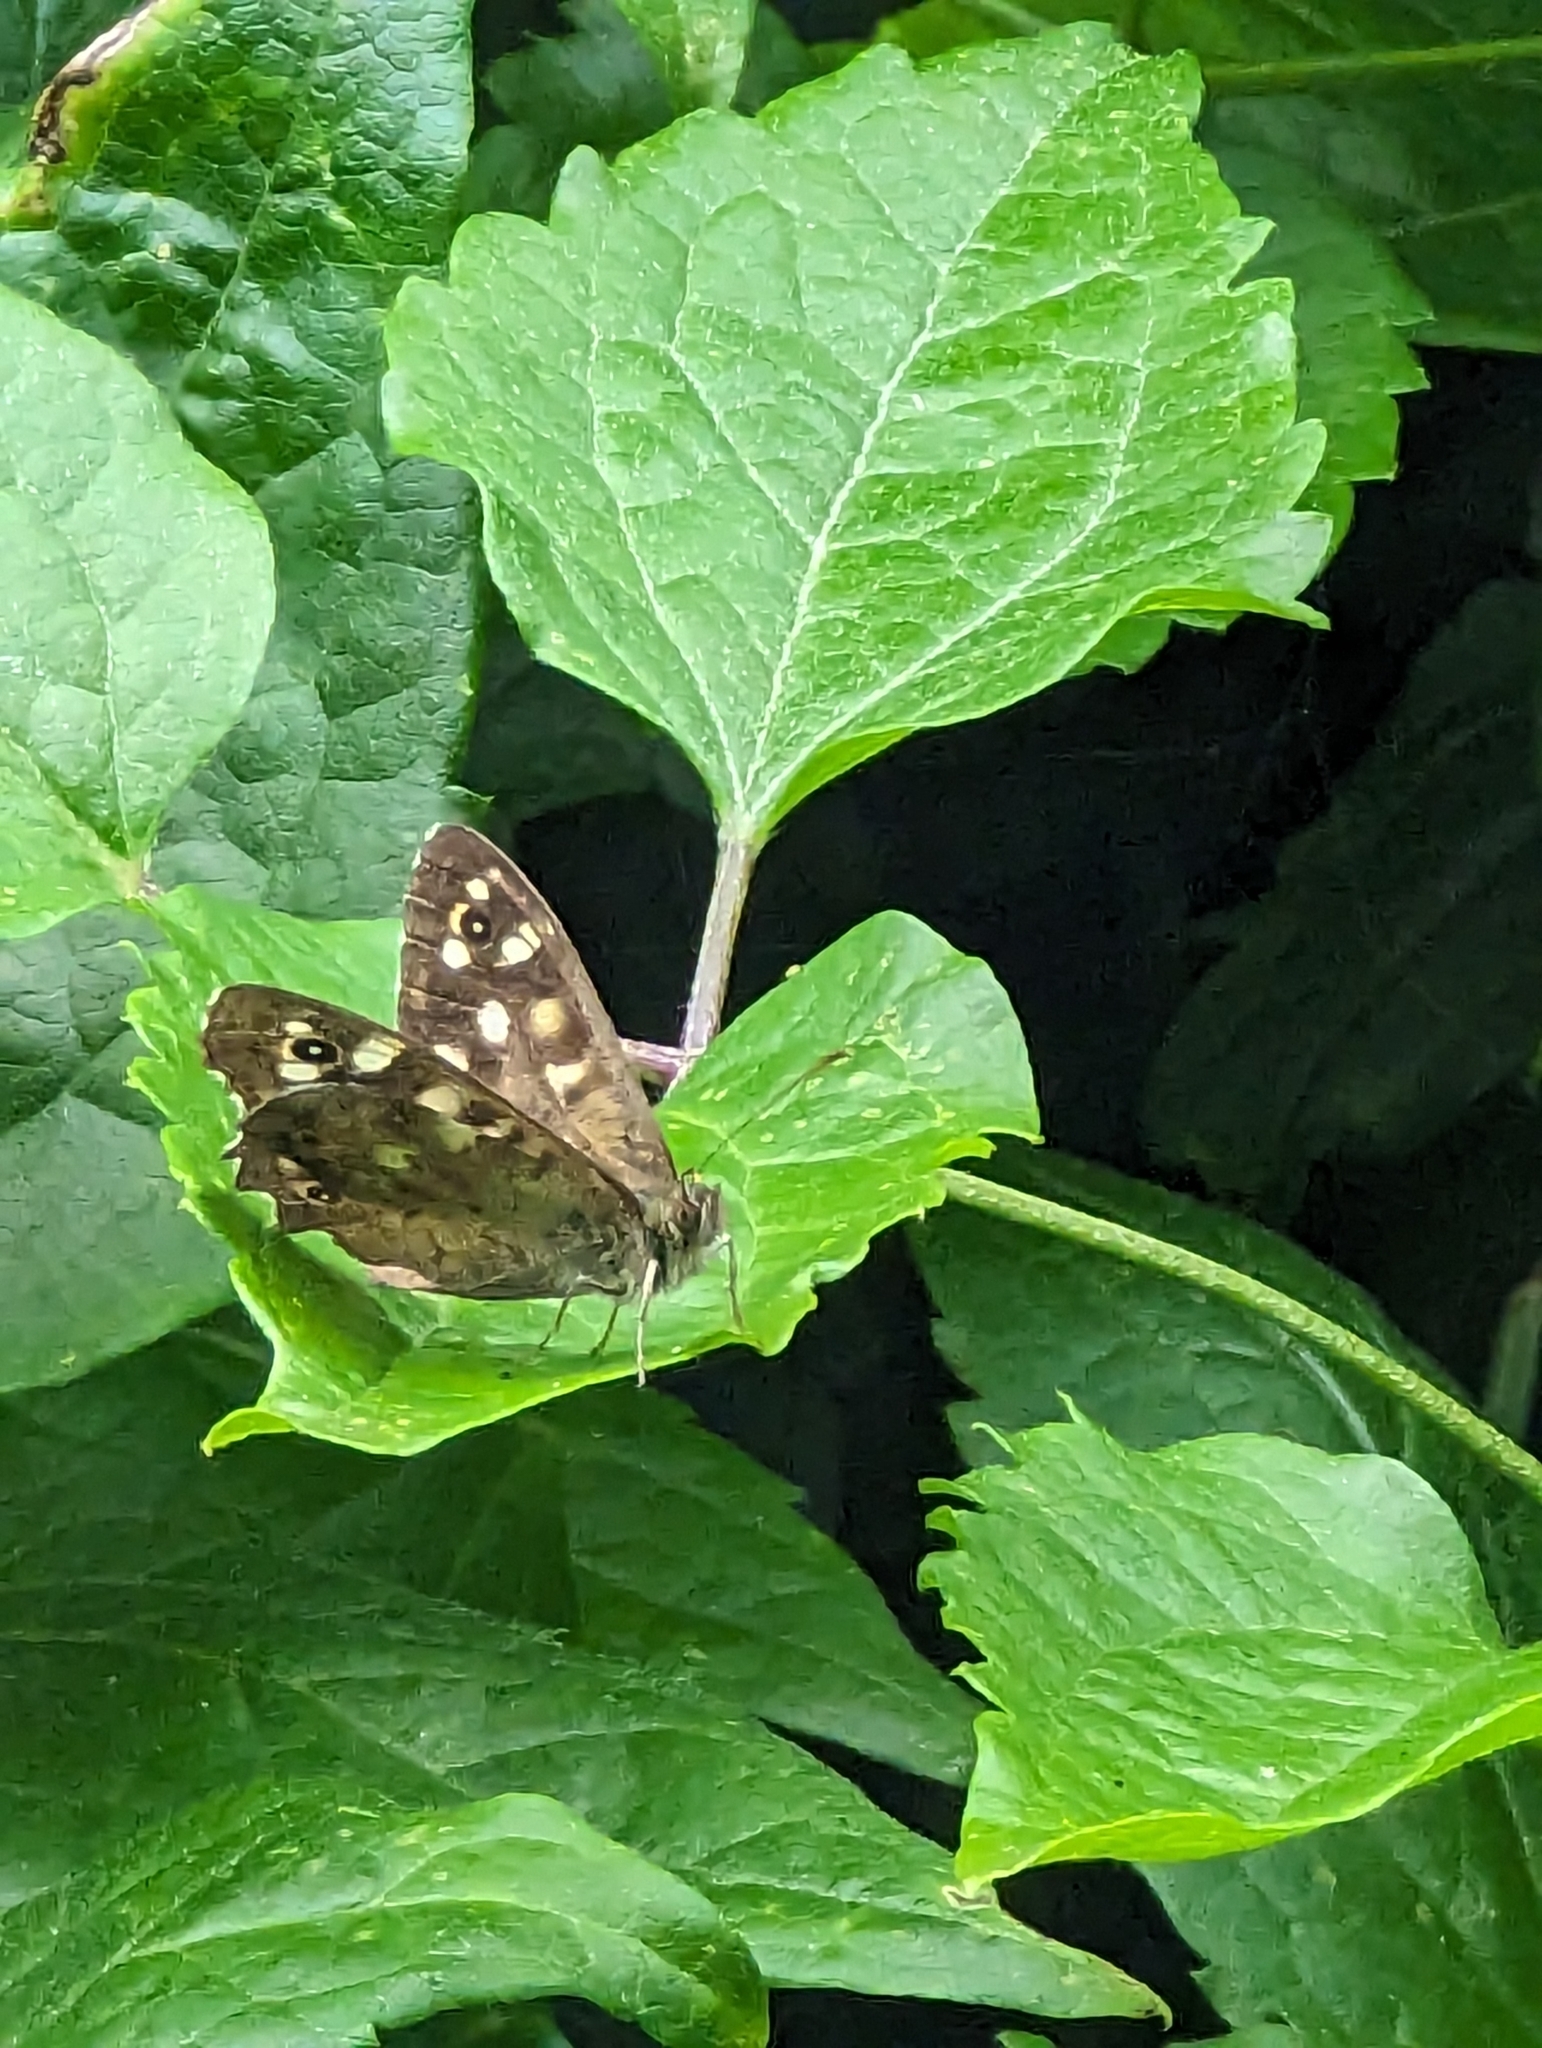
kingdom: Animalia
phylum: Arthropoda
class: Insecta
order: Lepidoptera
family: Nymphalidae
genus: Pararge
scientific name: Pararge aegeria
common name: Speckled wood
